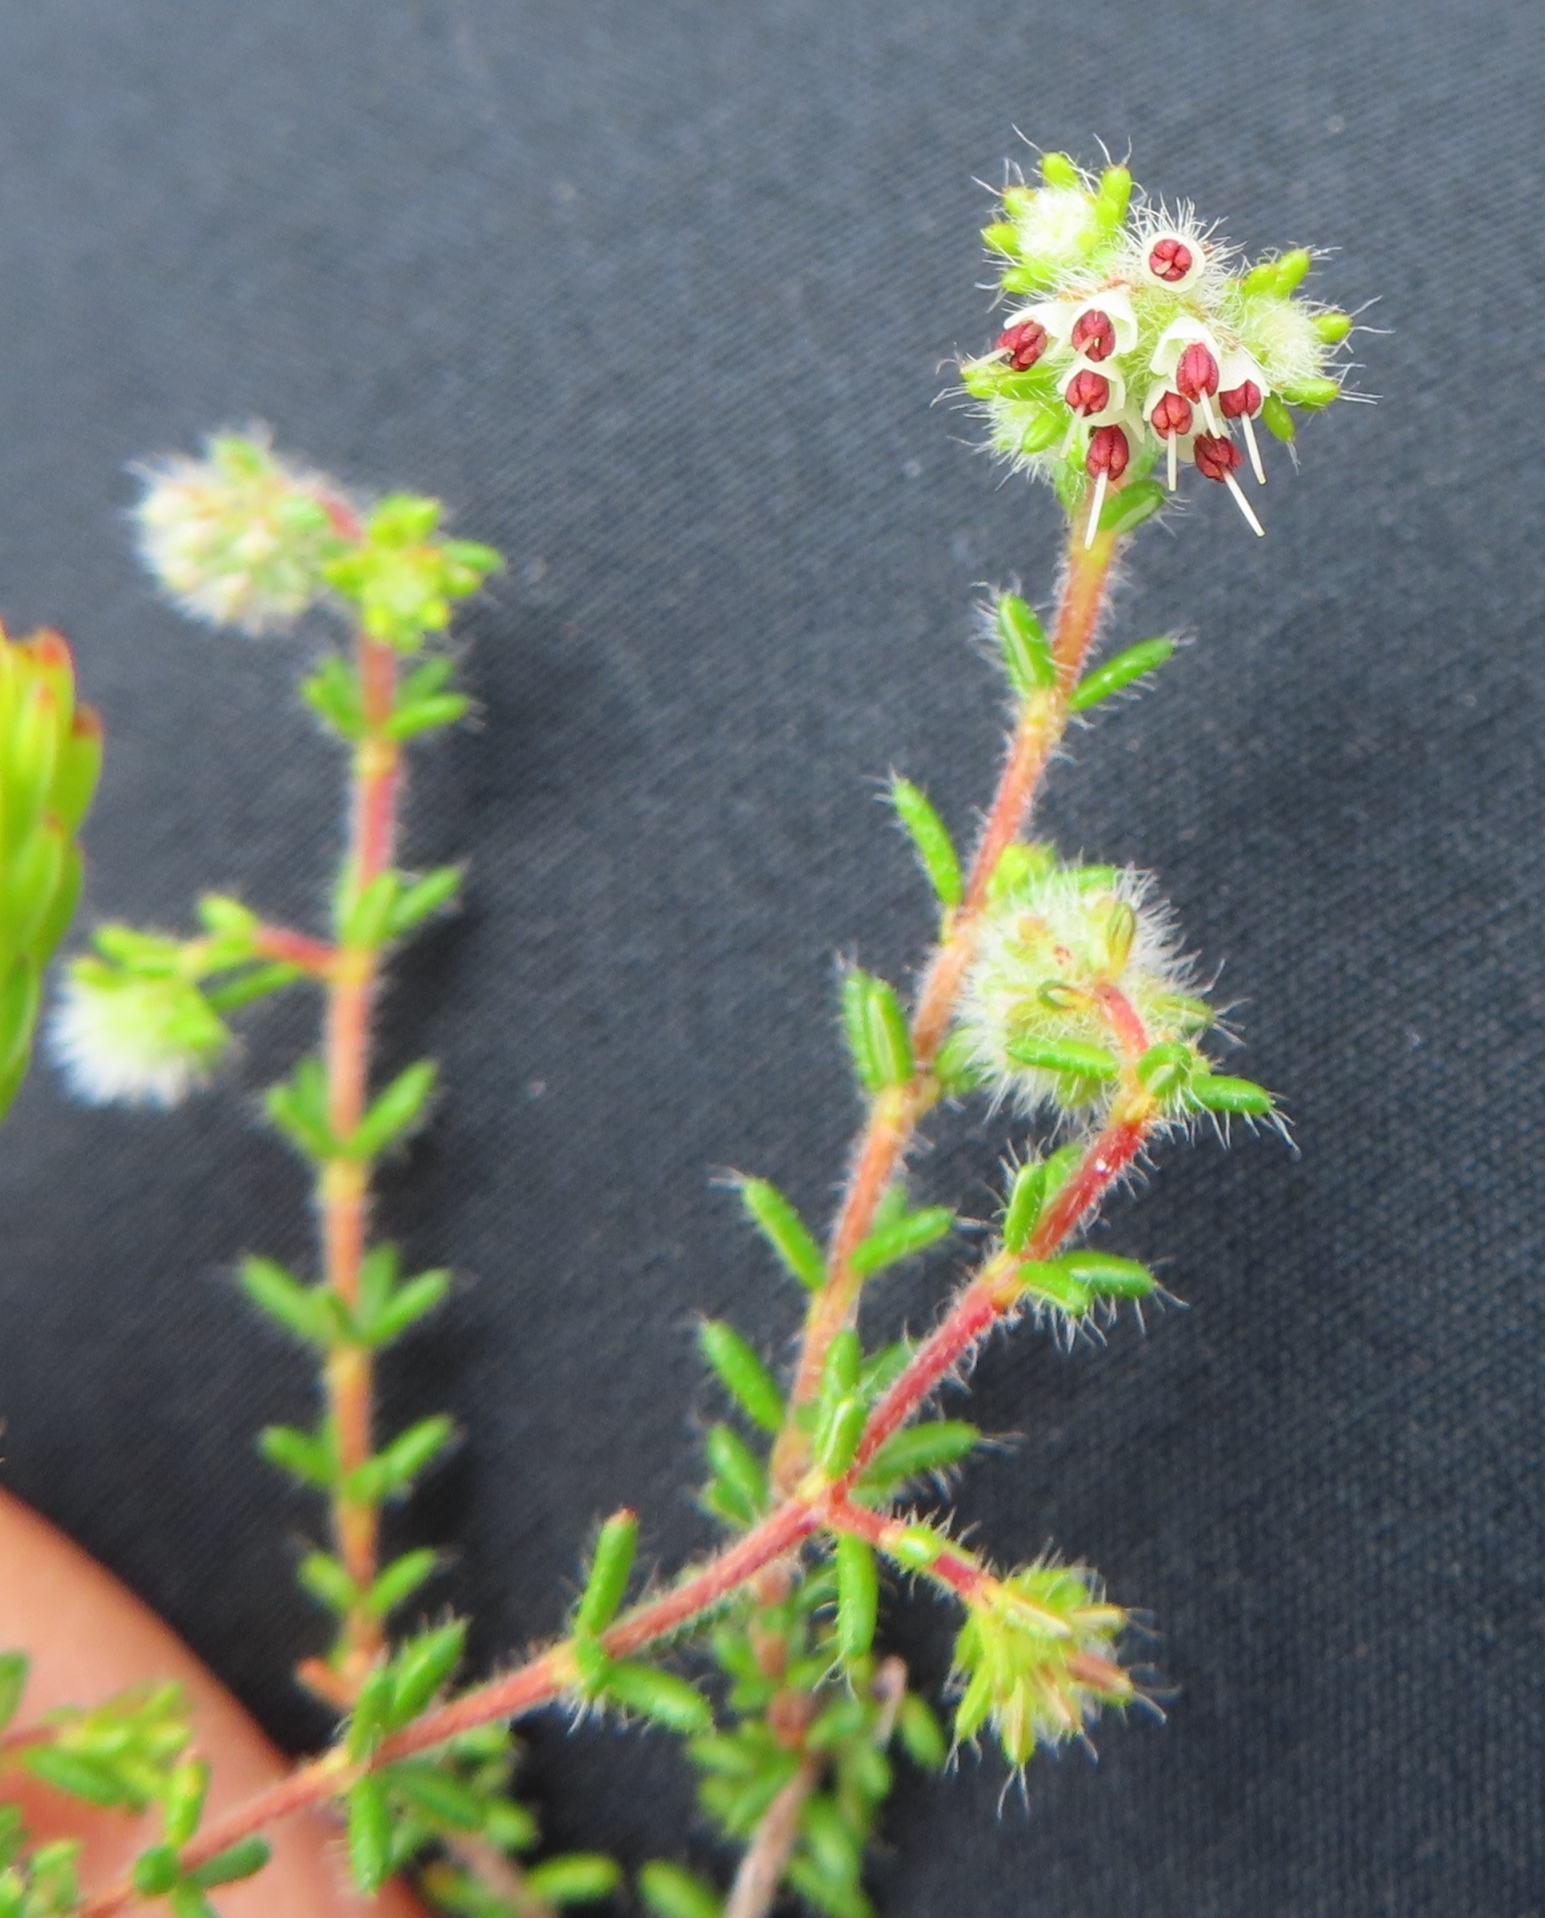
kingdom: Plantae
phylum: Tracheophyta
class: Magnoliopsida
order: Ericales
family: Ericaceae
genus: Erica
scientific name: Erica radicans
